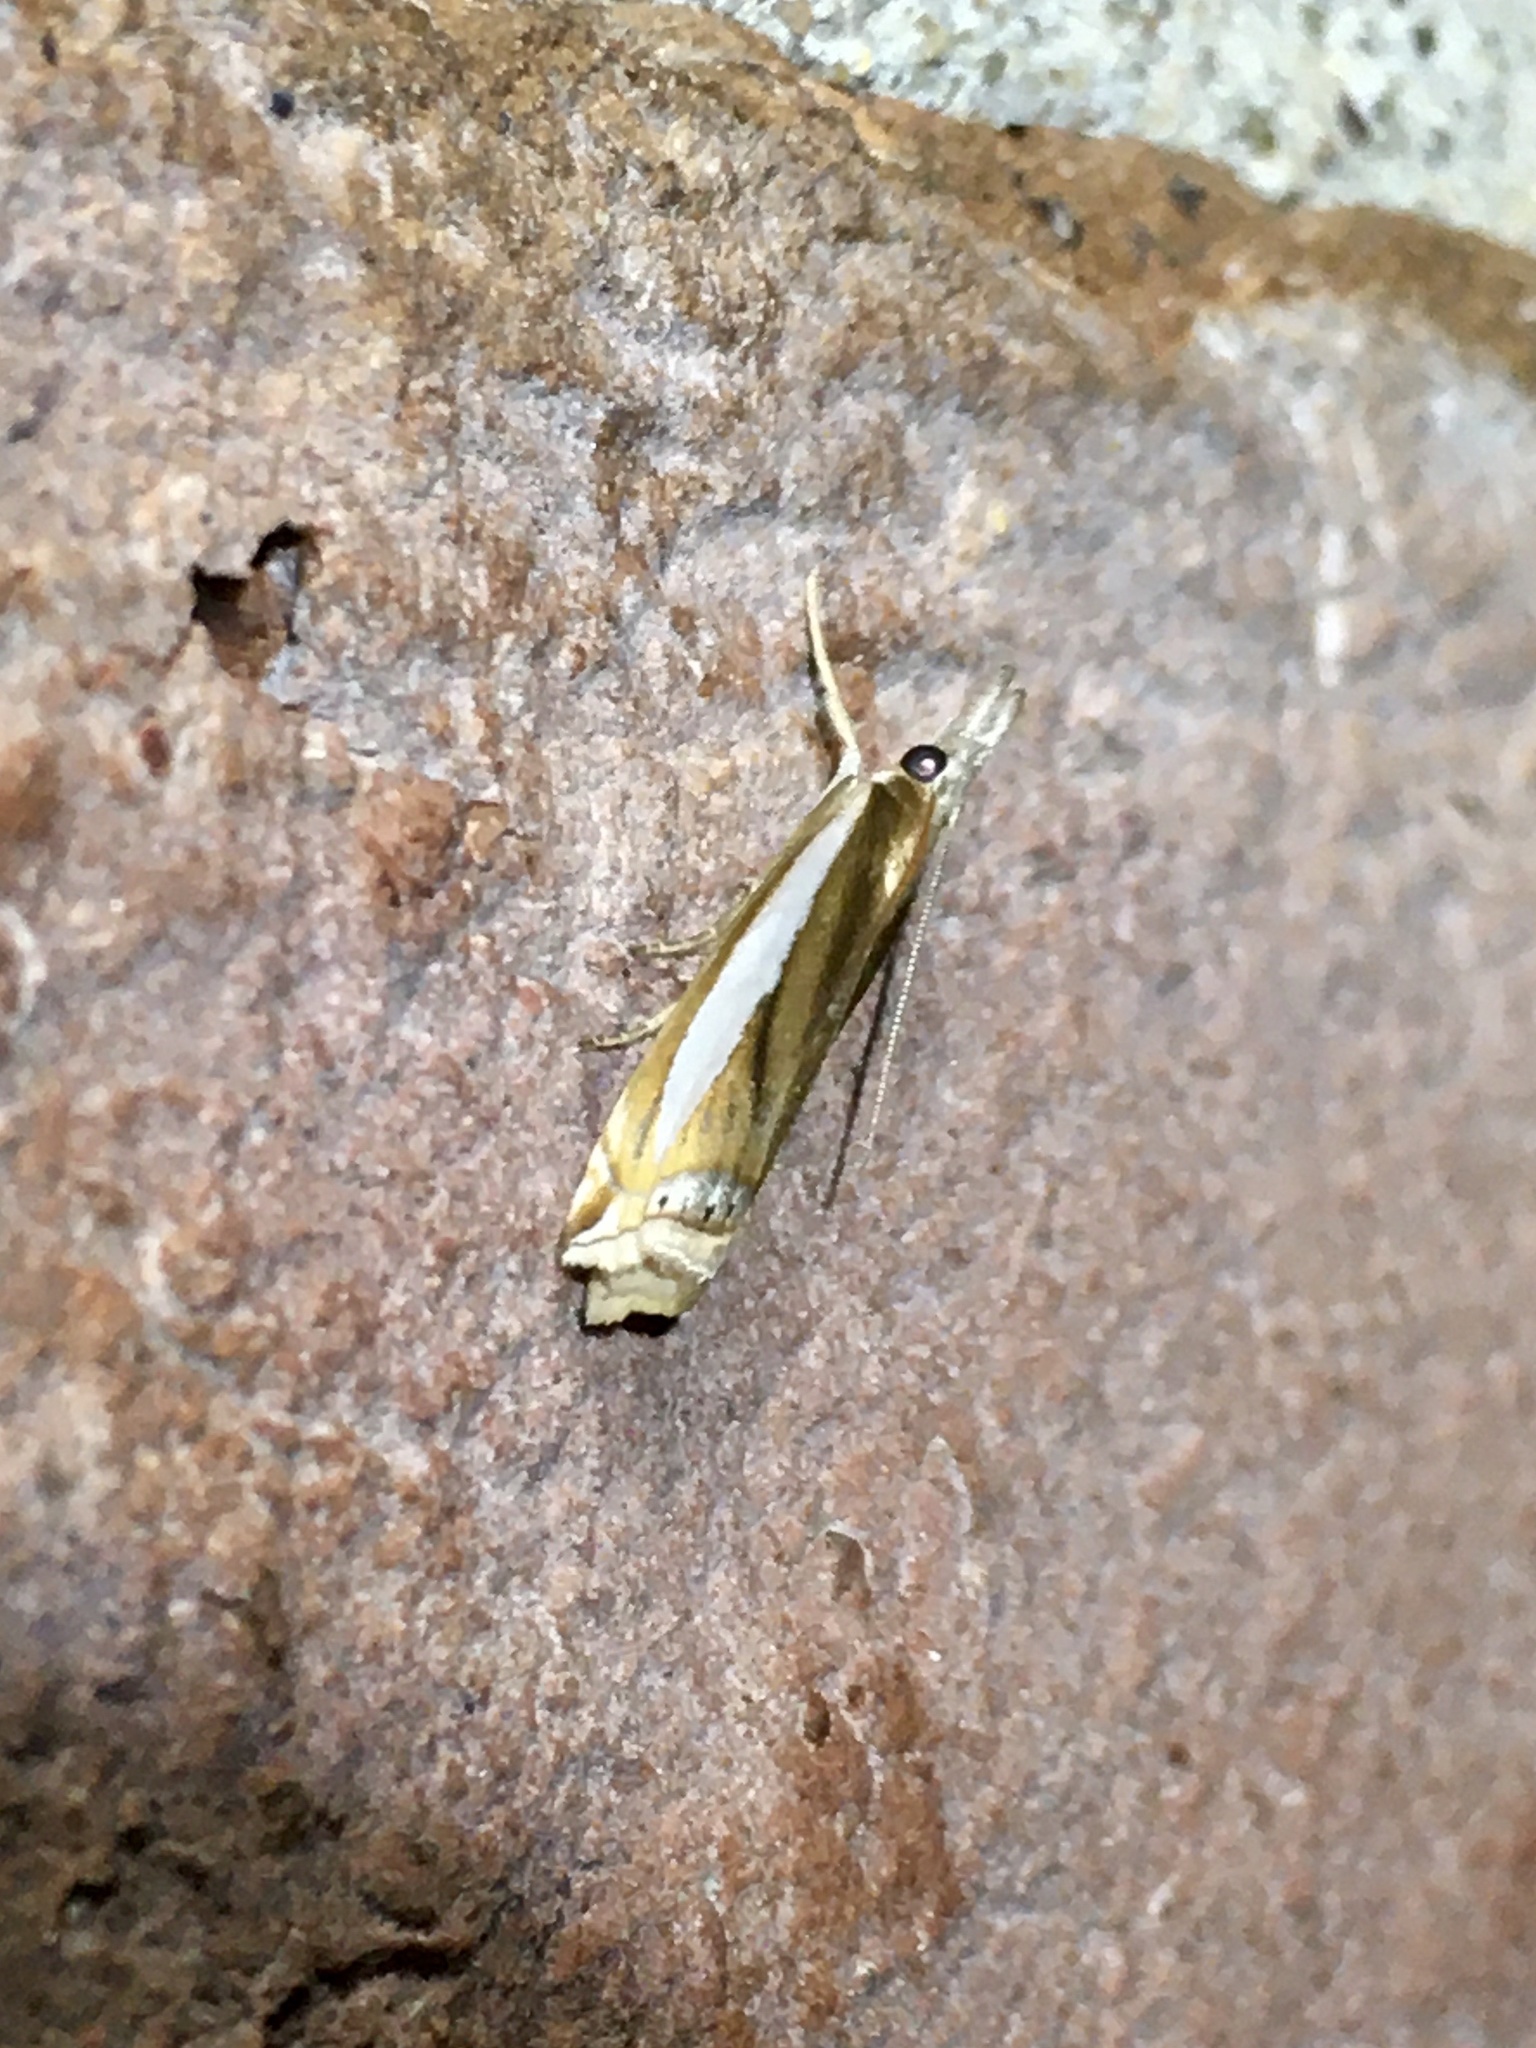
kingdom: Animalia
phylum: Arthropoda
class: Insecta
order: Lepidoptera
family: Crambidae
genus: Crambus
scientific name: Crambus praefectellus
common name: Common grass-veneer
